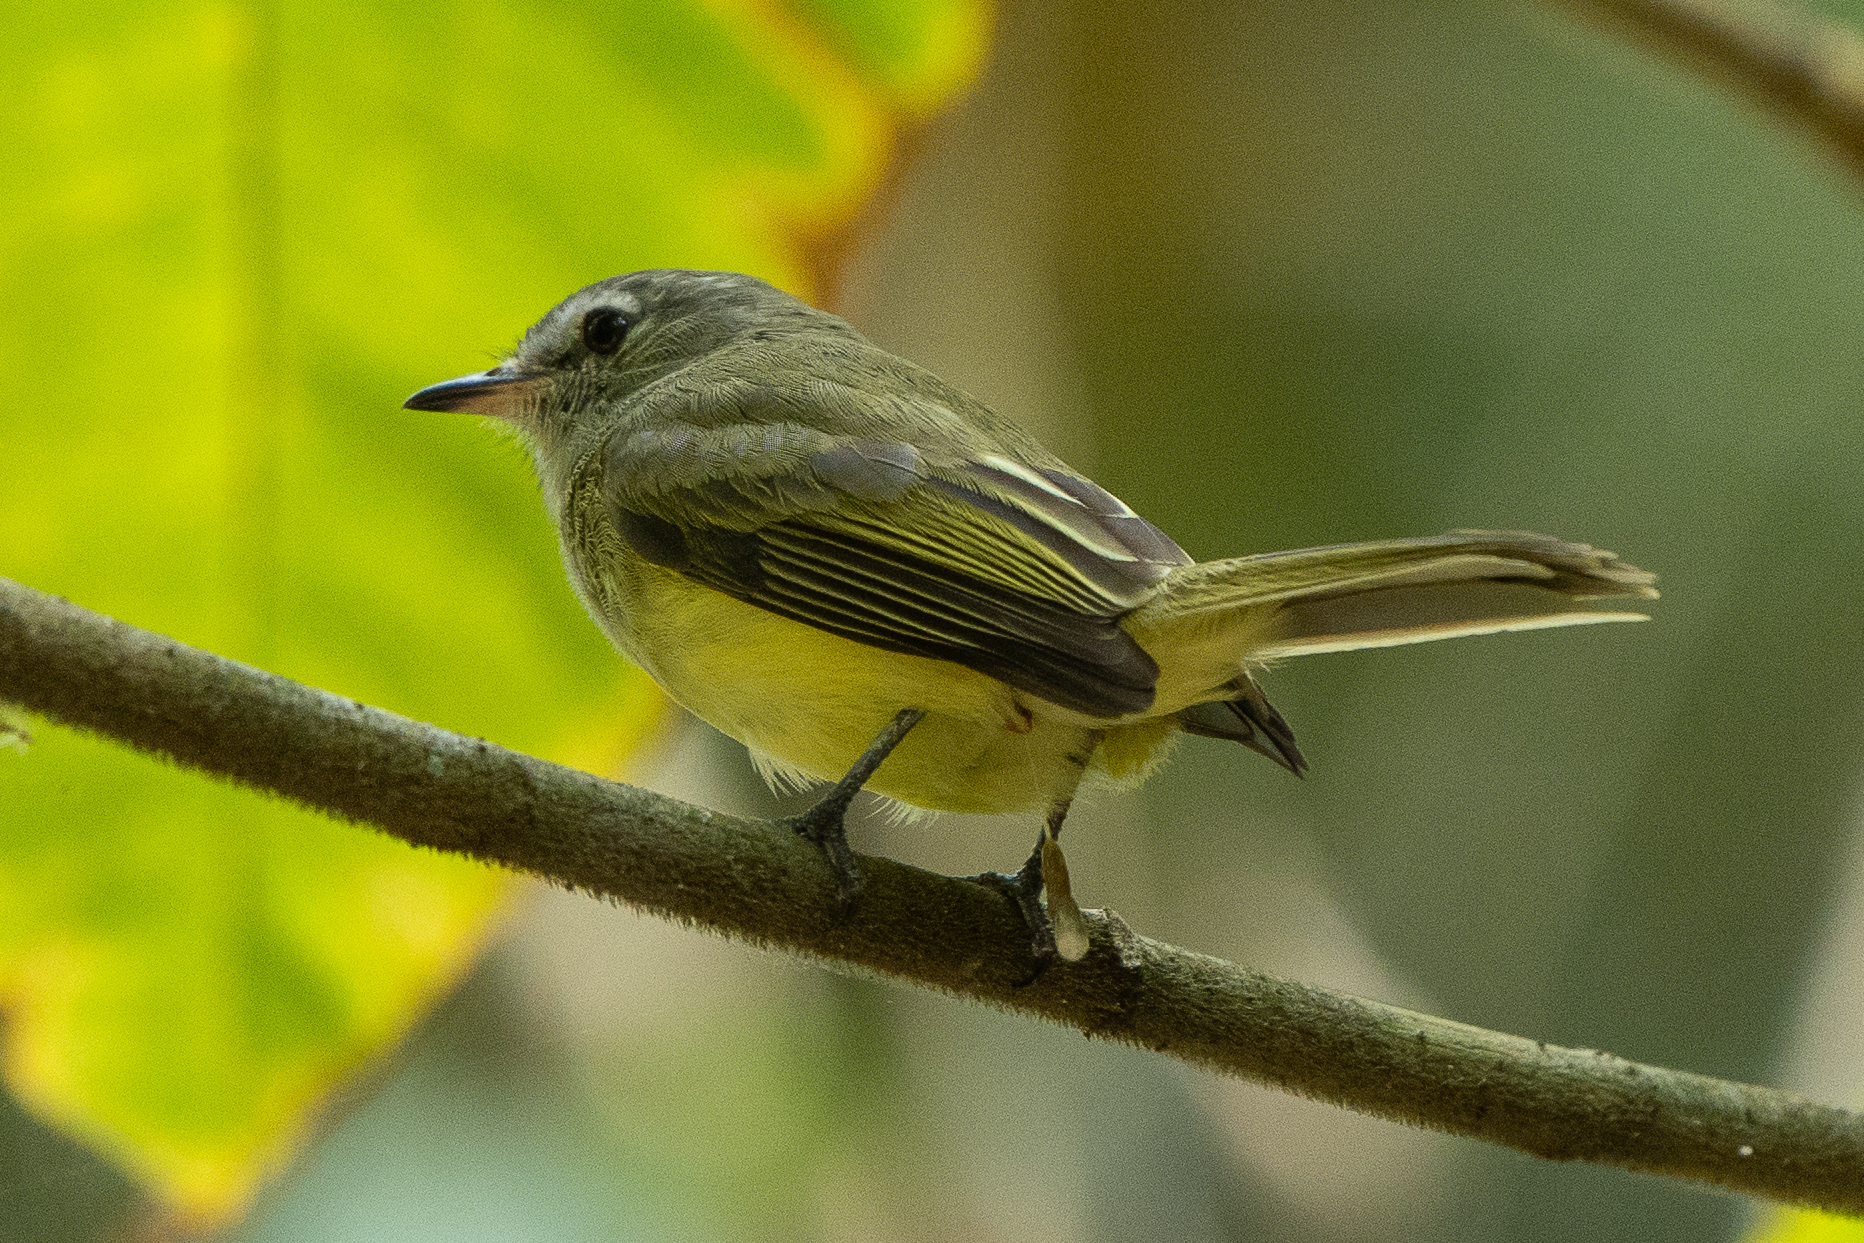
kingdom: Animalia
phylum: Chordata
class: Aves
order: Passeriformes
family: Tyrannidae
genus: Myiopagis
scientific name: Myiopagis viridicata
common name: Greenish elaenia
